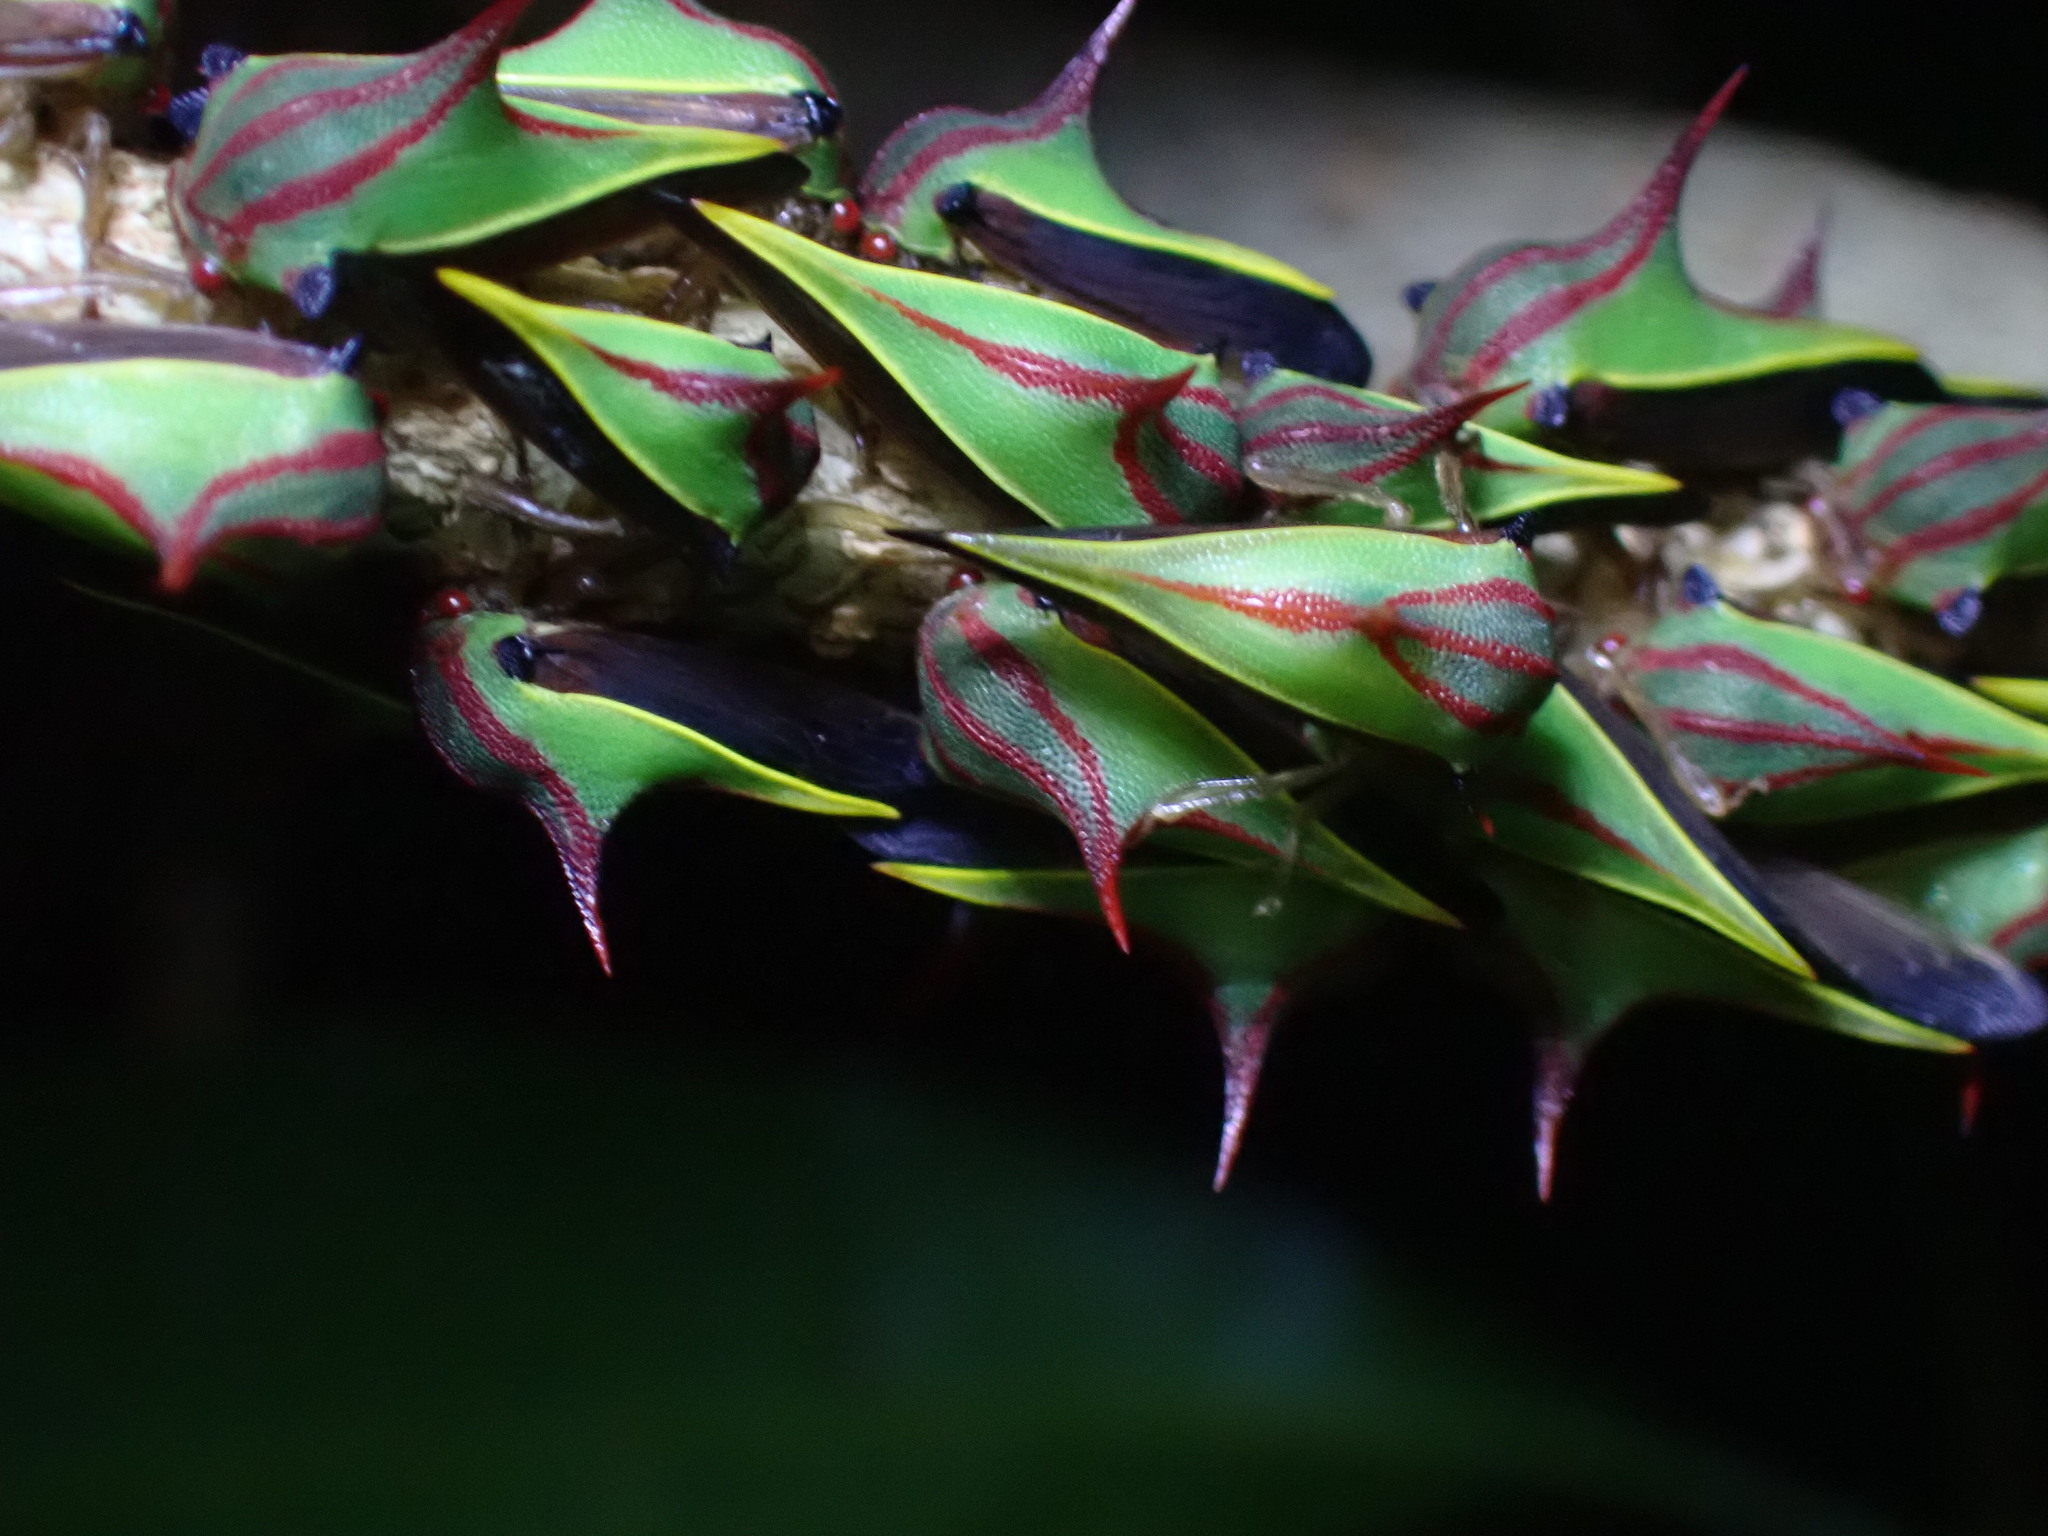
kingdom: Animalia
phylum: Arthropoda
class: Insecta
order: Hemiptera
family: Membracidae
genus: Umbonia
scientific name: Umbonia ataliba
